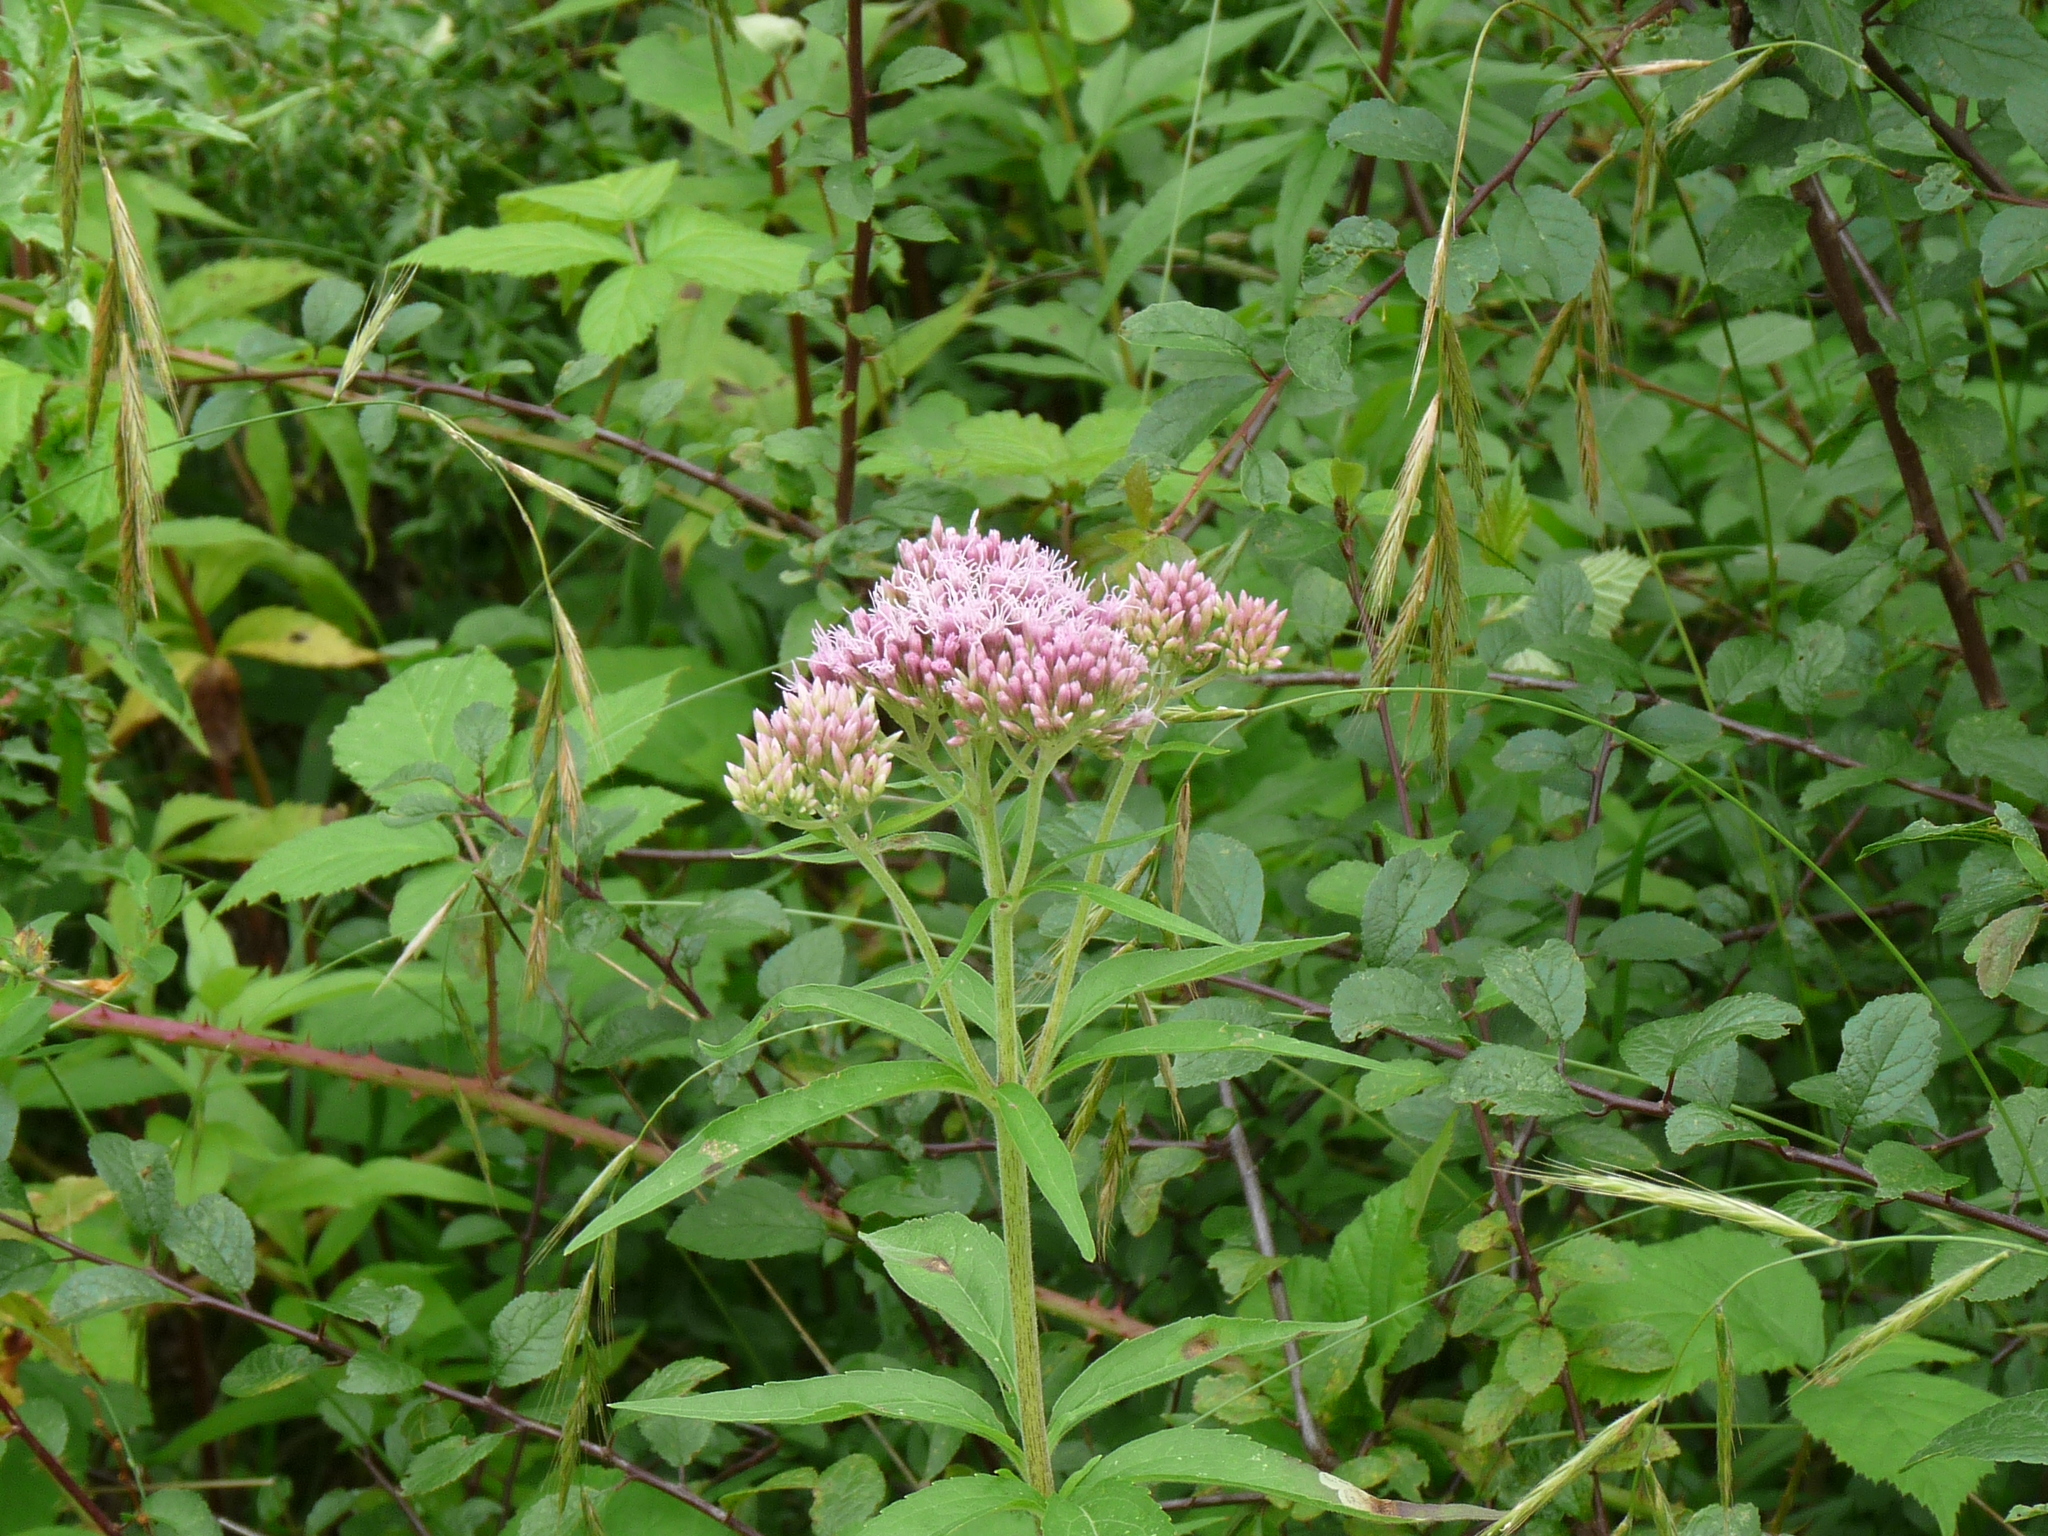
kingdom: Plantae
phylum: Tracheophyta
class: Magnoliopsida
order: Asterales
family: Asteraceae
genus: Eupatorium
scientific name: Eupatorium cannabinum
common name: Hemp-agrimony
